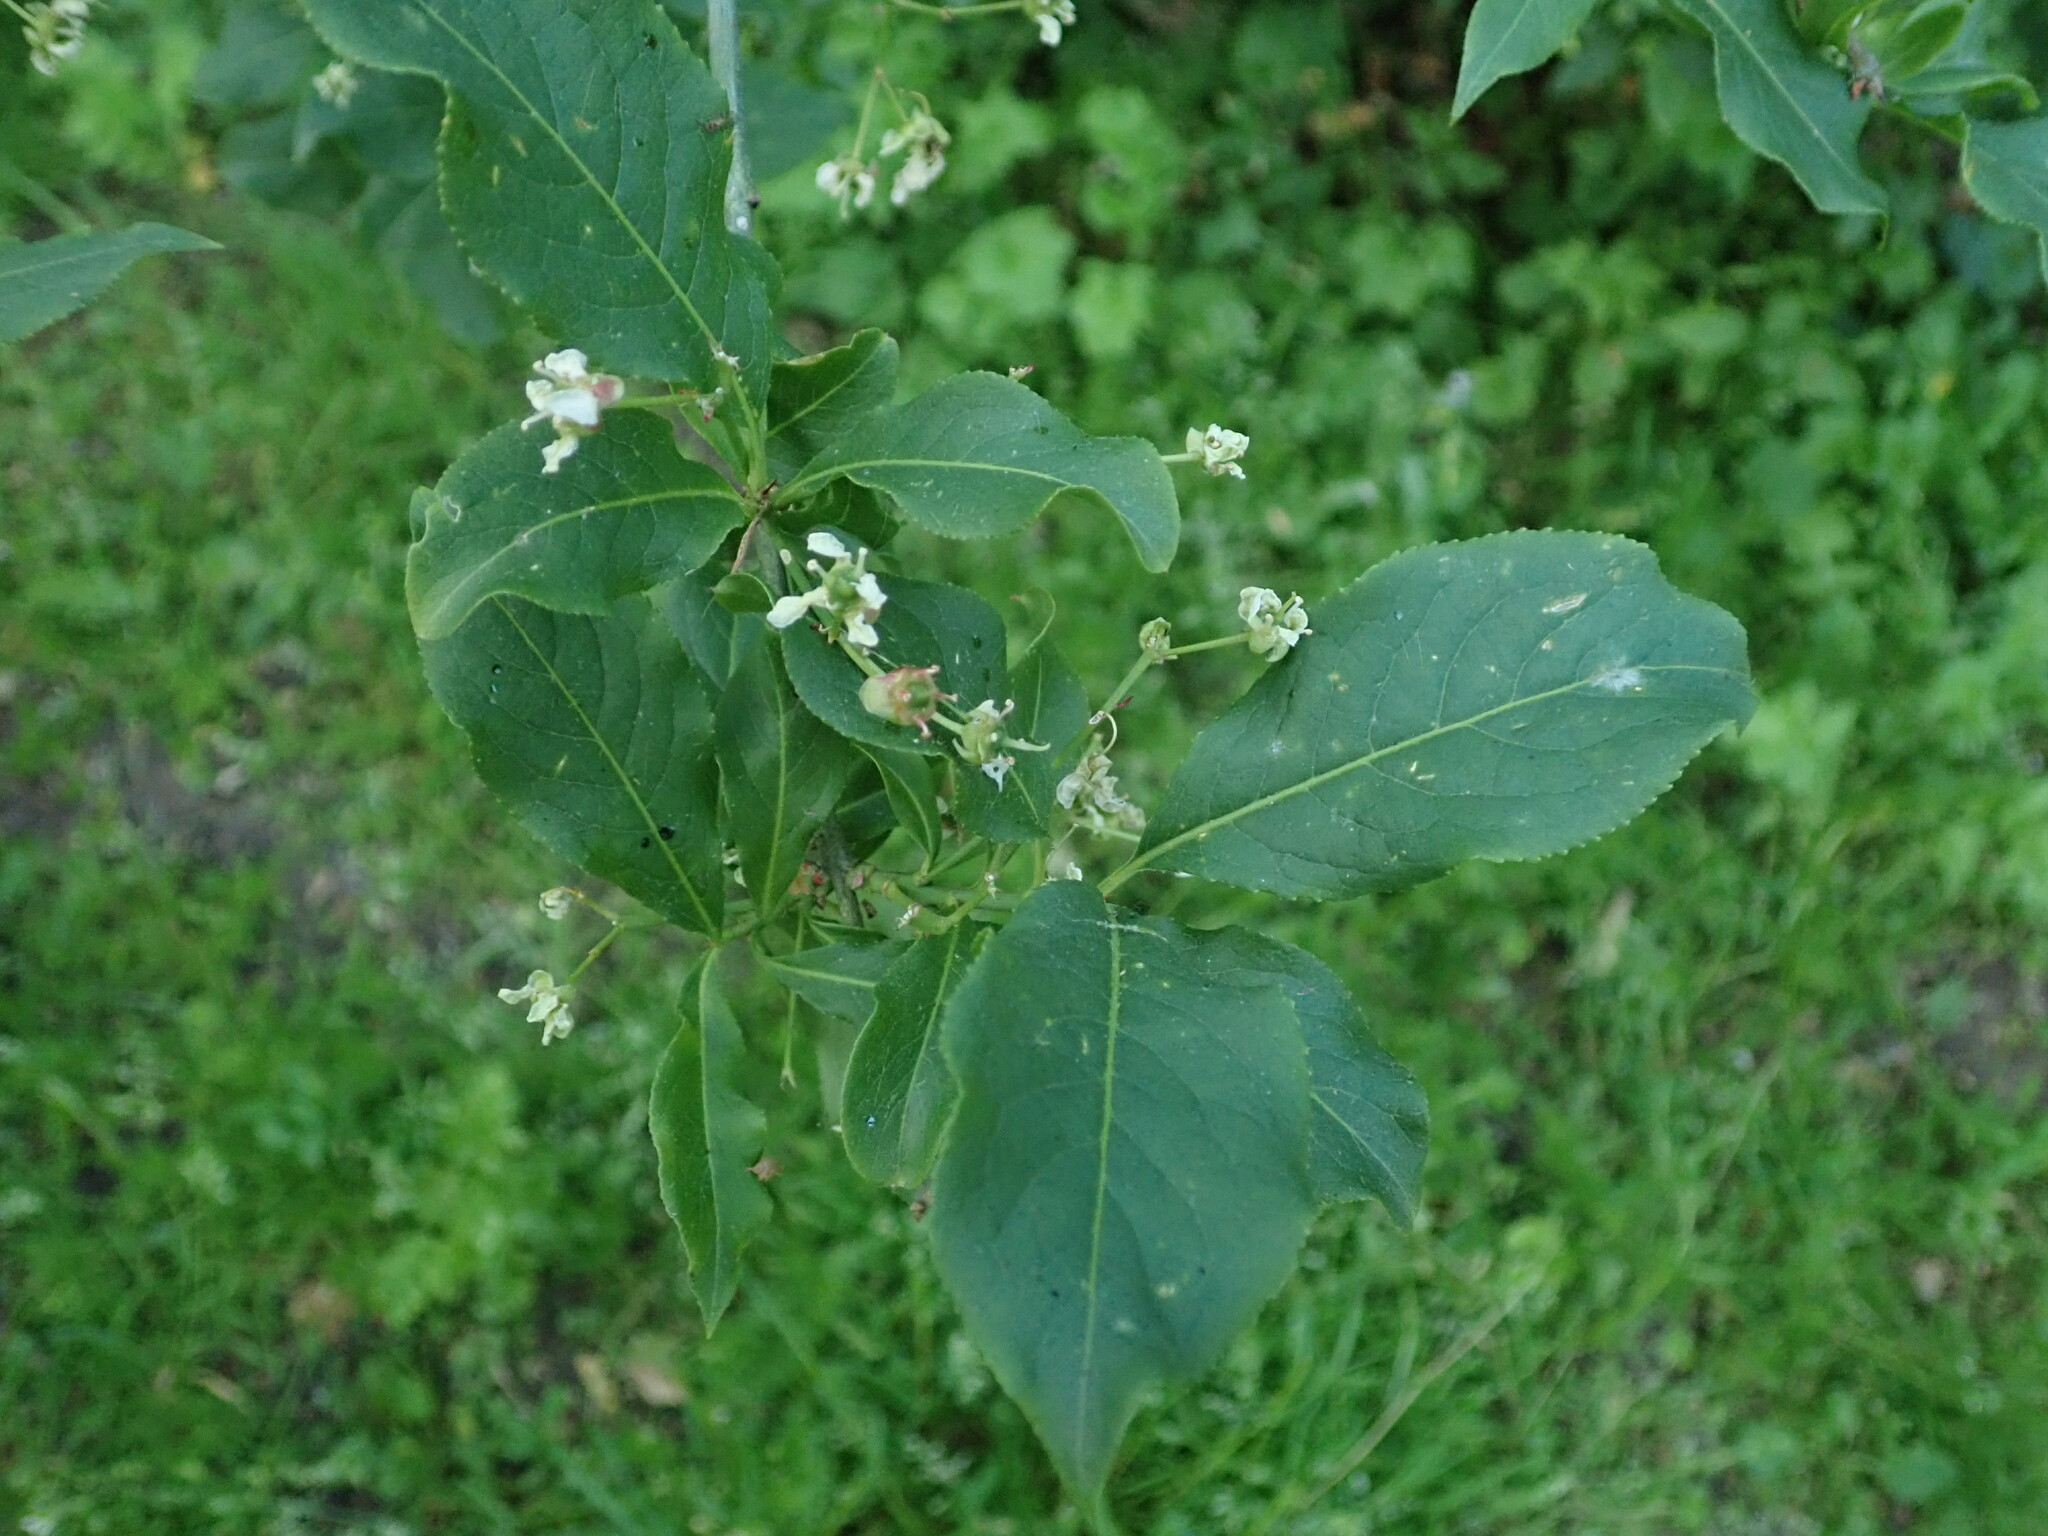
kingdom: Plantae
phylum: Tracheophyta
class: Magnoliopsida
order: Celastrales
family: Celastraceae
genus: Euonymus
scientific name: Euonymus europaeus
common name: Spindle
